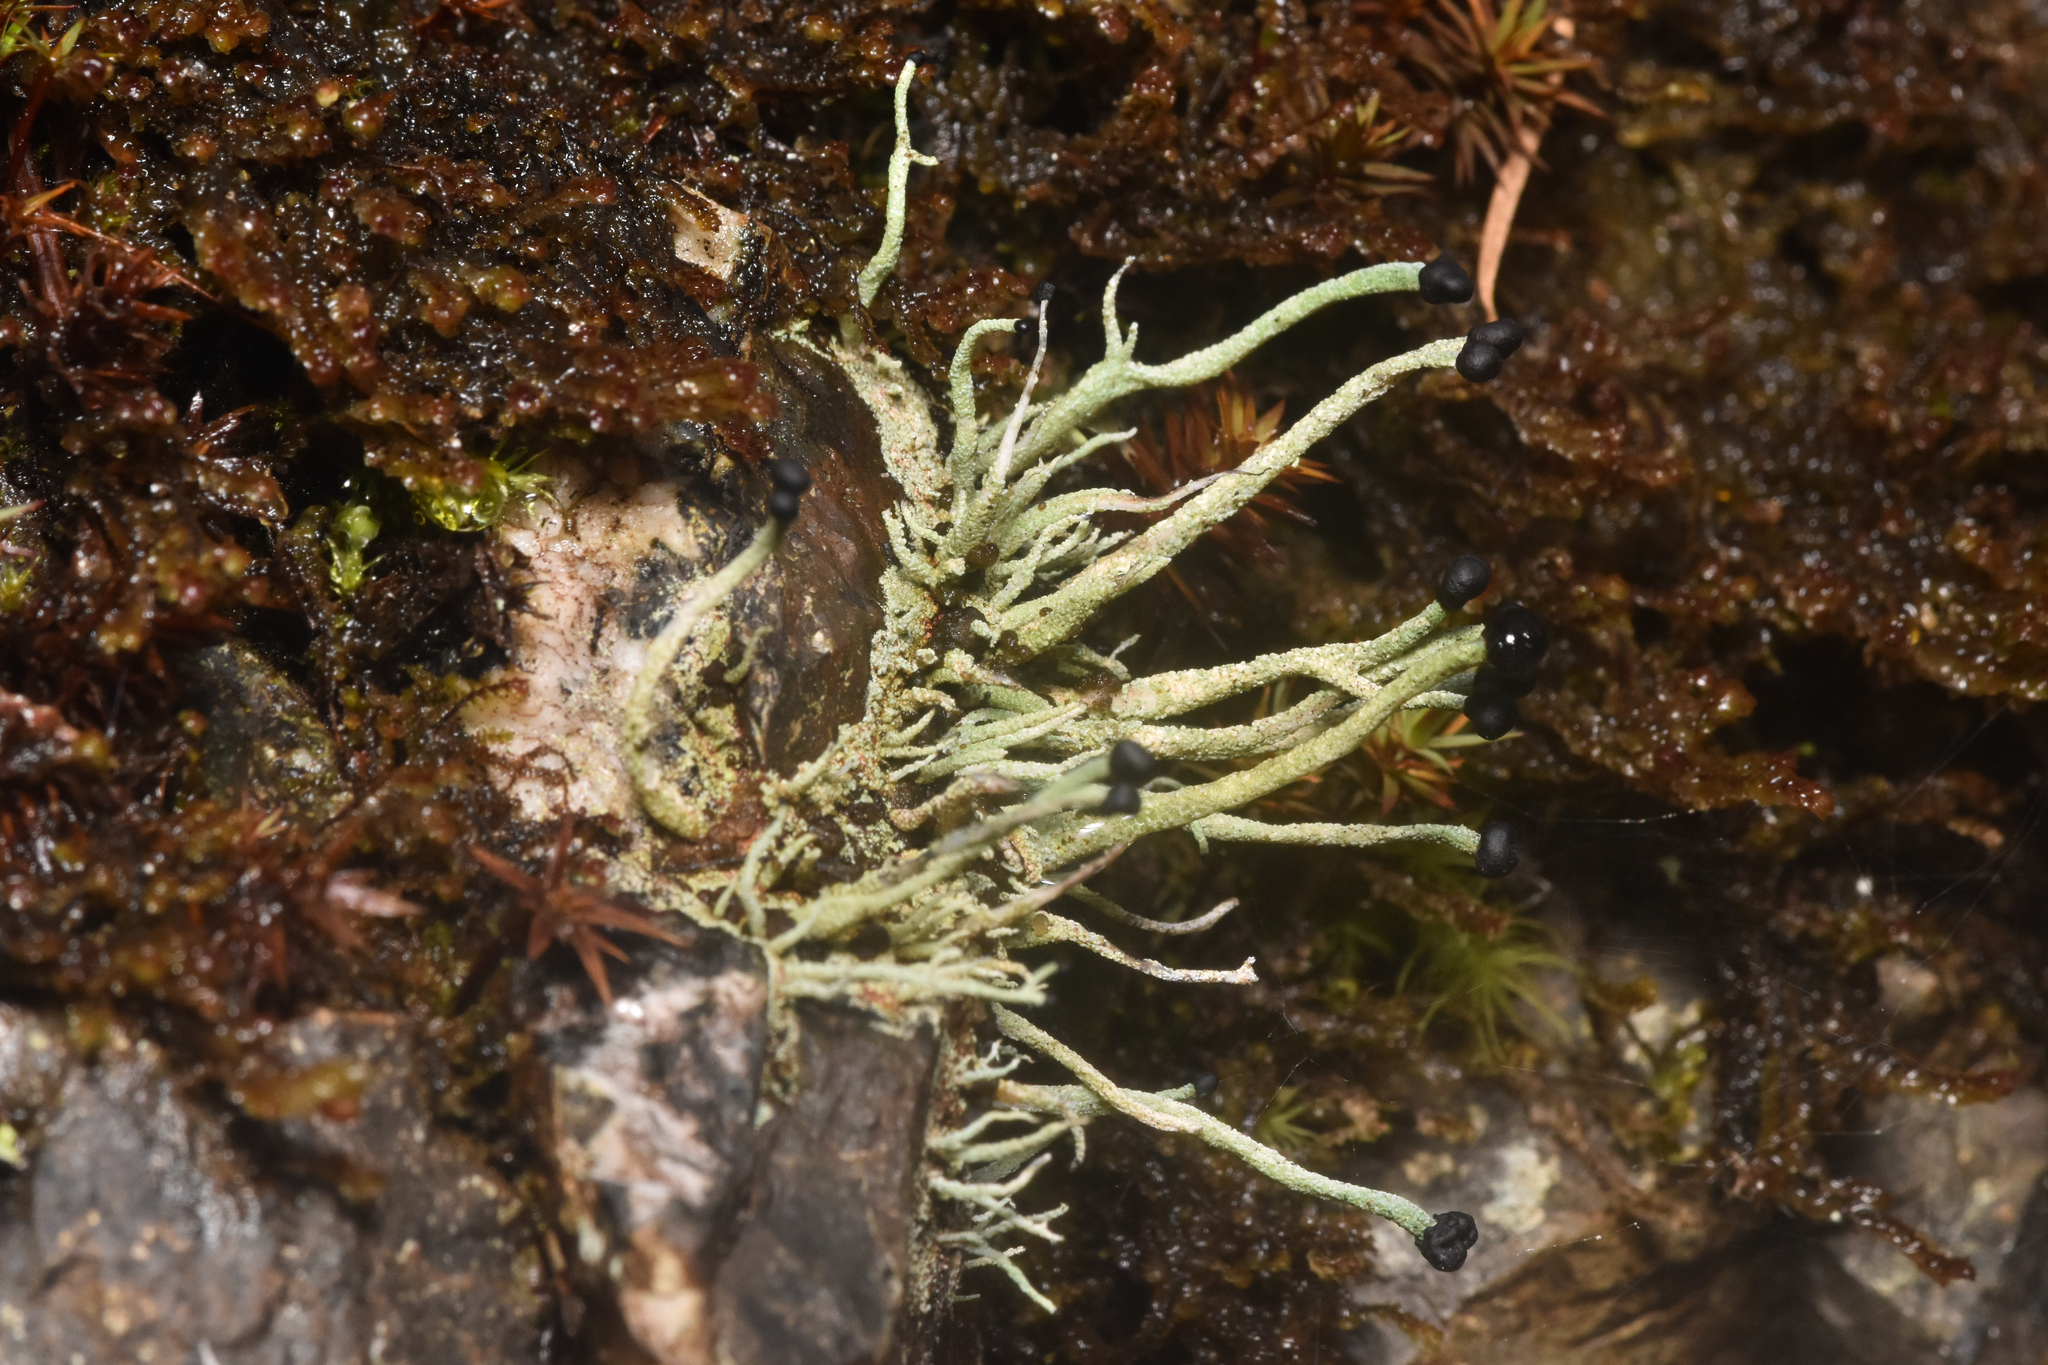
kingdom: Fungi
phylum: Ascomycota
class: Lecanoromycetes
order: Lecanorales
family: Cladoniaceae
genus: Pilophorus
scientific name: Pilophorus acicularis
